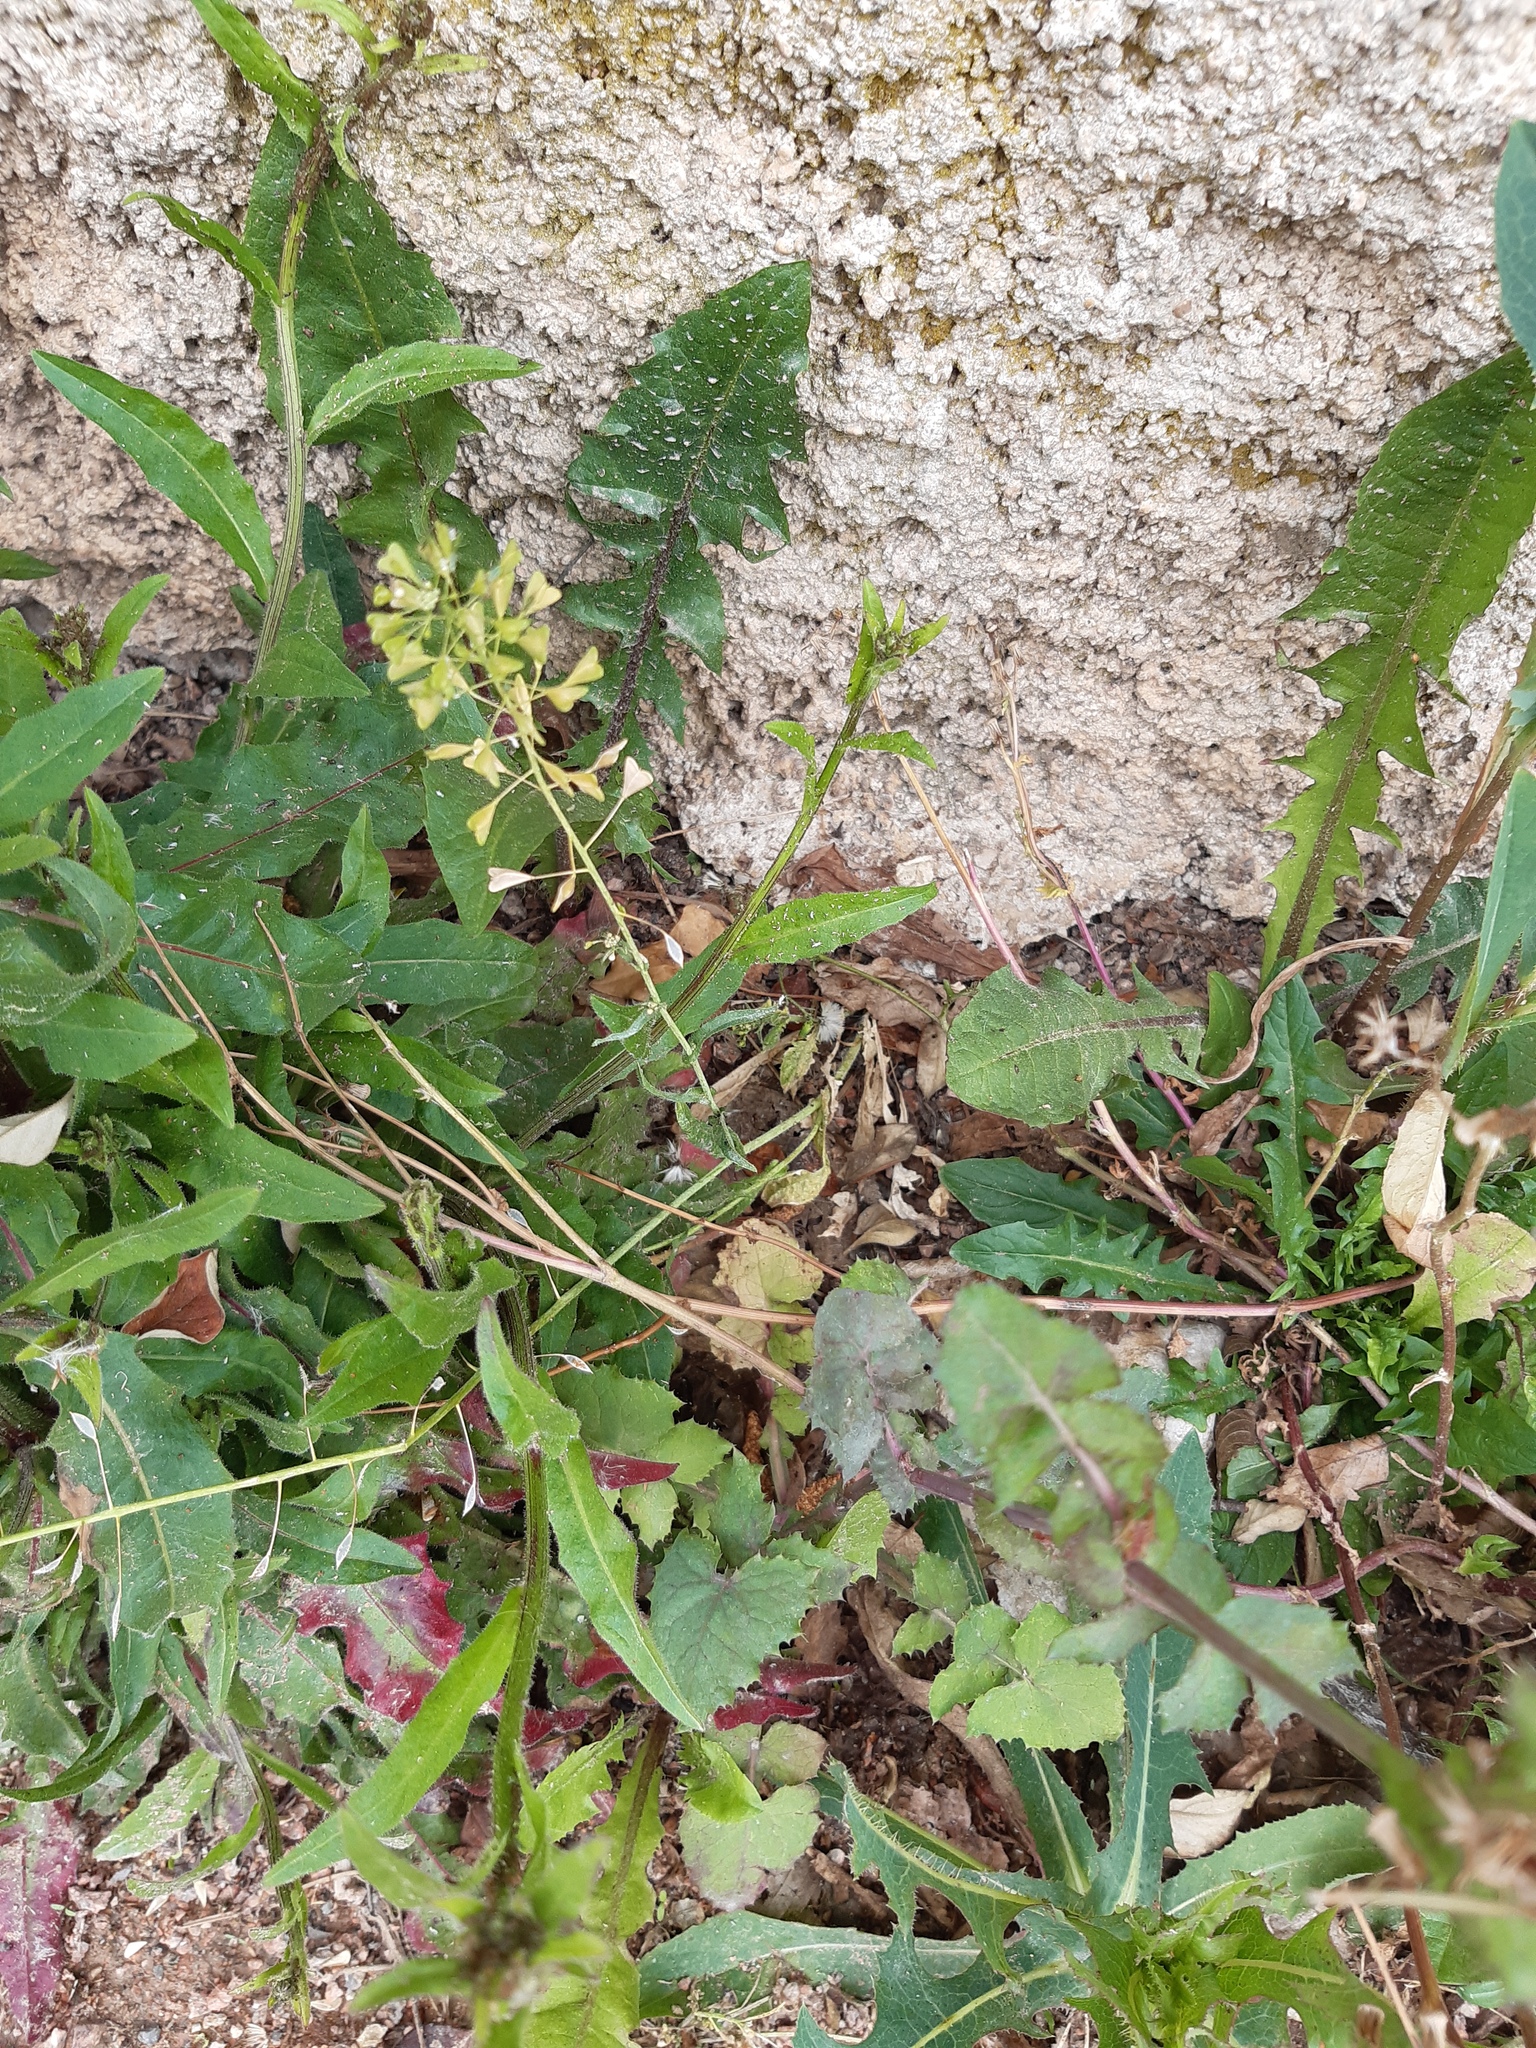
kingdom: Plantae
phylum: Tracheophyta
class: Magnoliopsida
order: Brassicales
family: Brassicaceae
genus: Capsella
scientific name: Capsella bursa-pastoris
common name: Shepherd's purse
